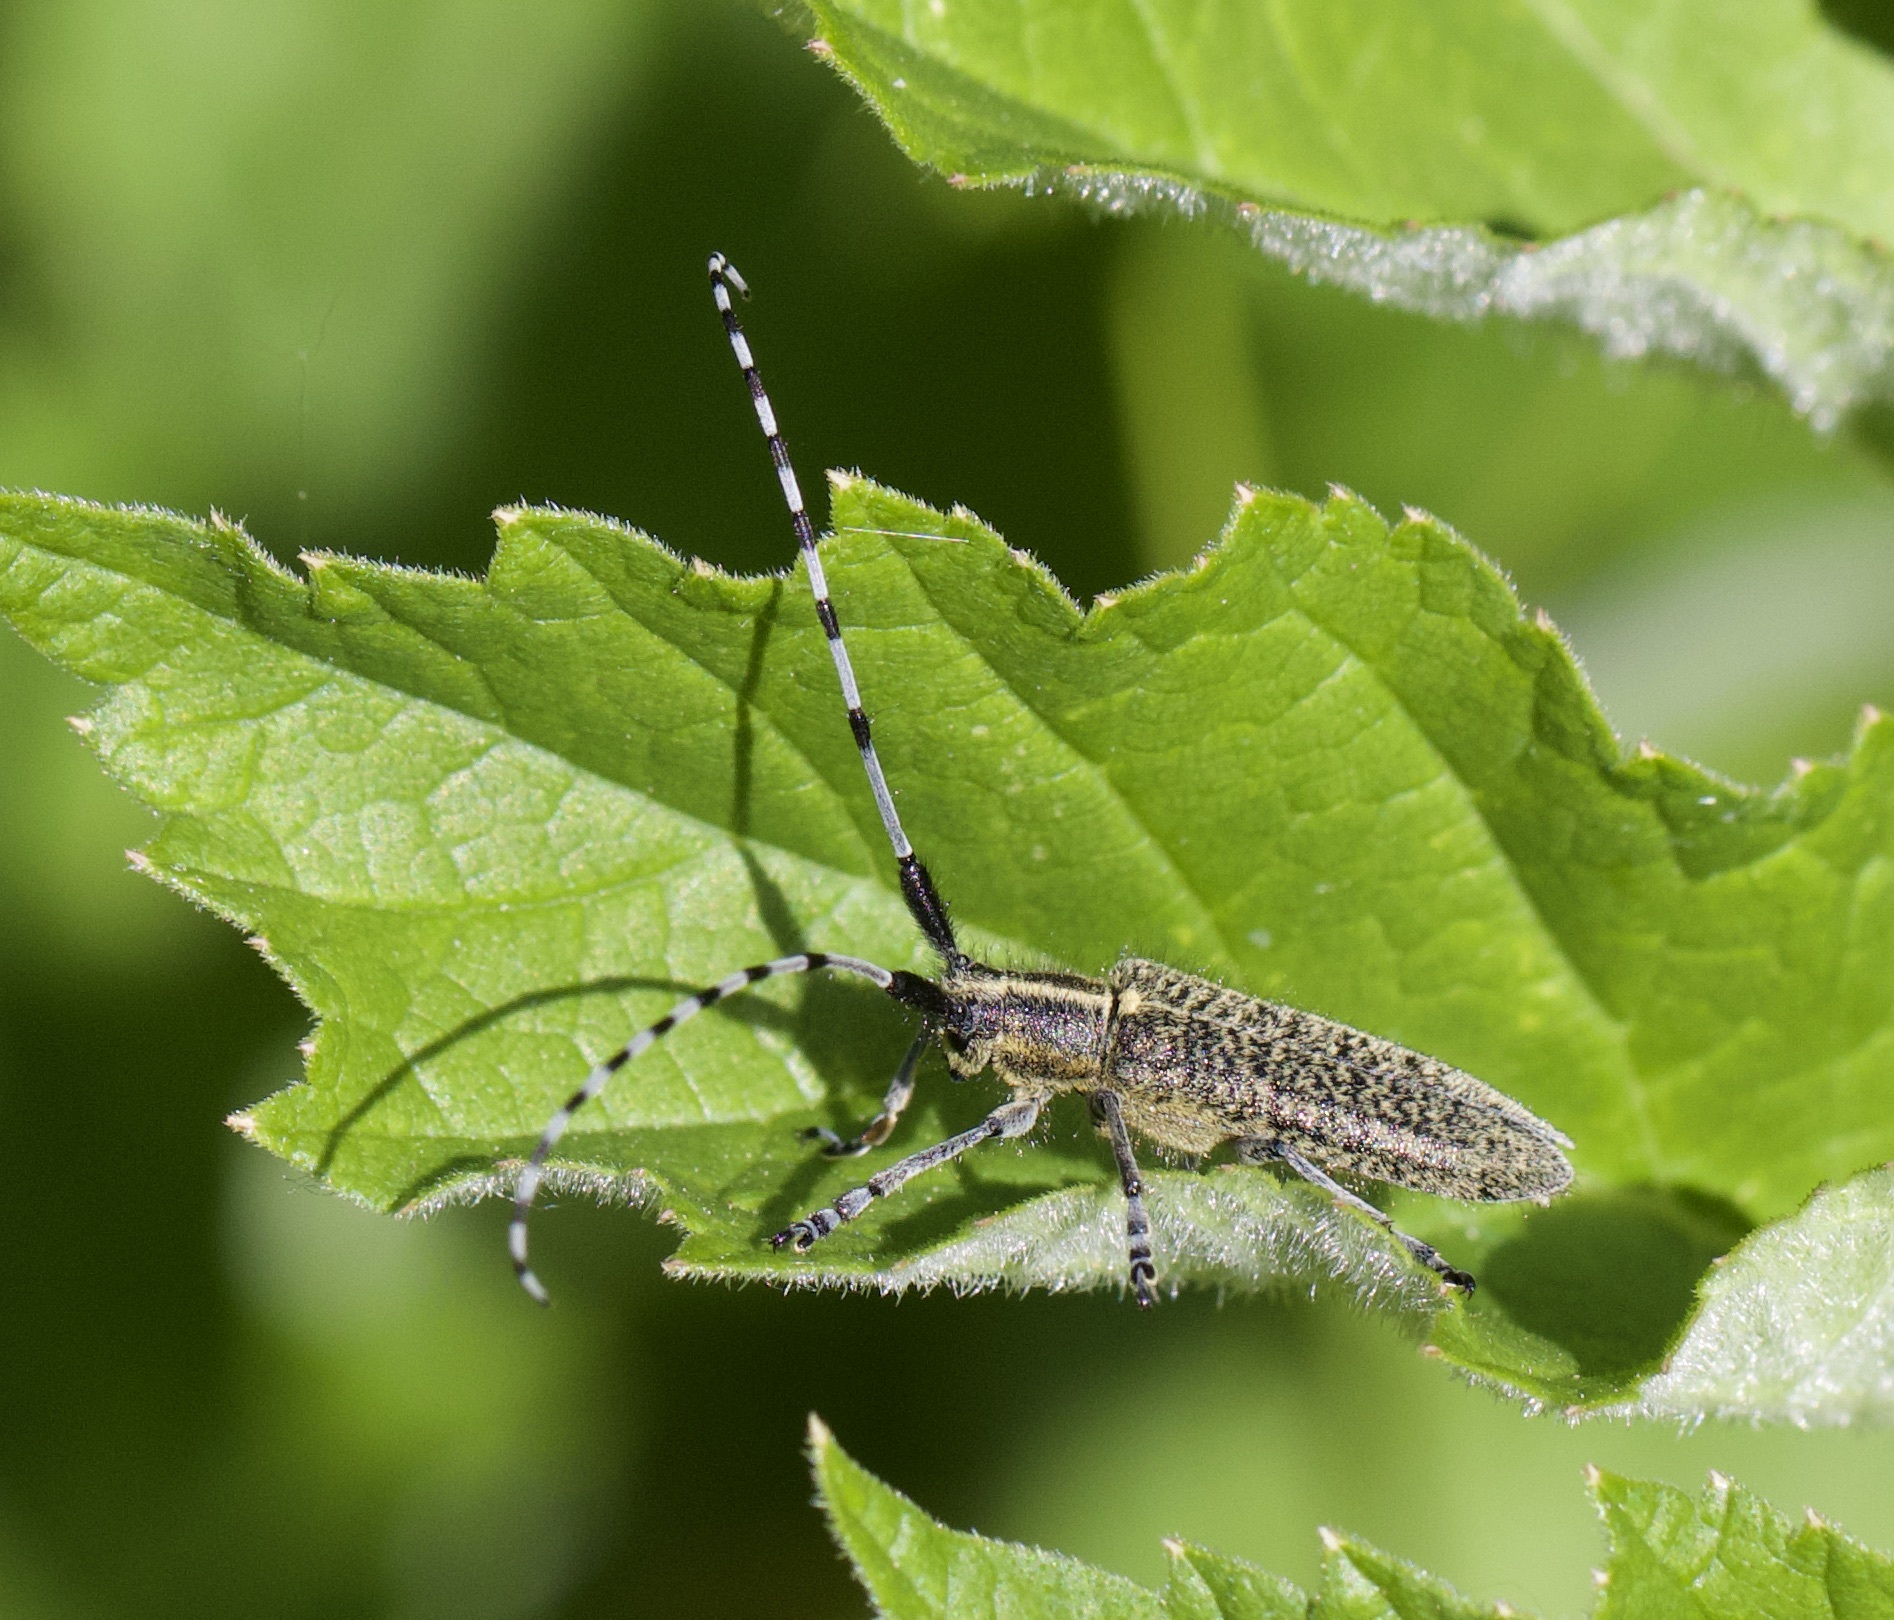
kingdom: Animalia
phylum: Arthropoda
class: Insecta
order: Coleoptera
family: Cerambycidae
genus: Agapanthia
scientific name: Agapanthia villosoviridescens
